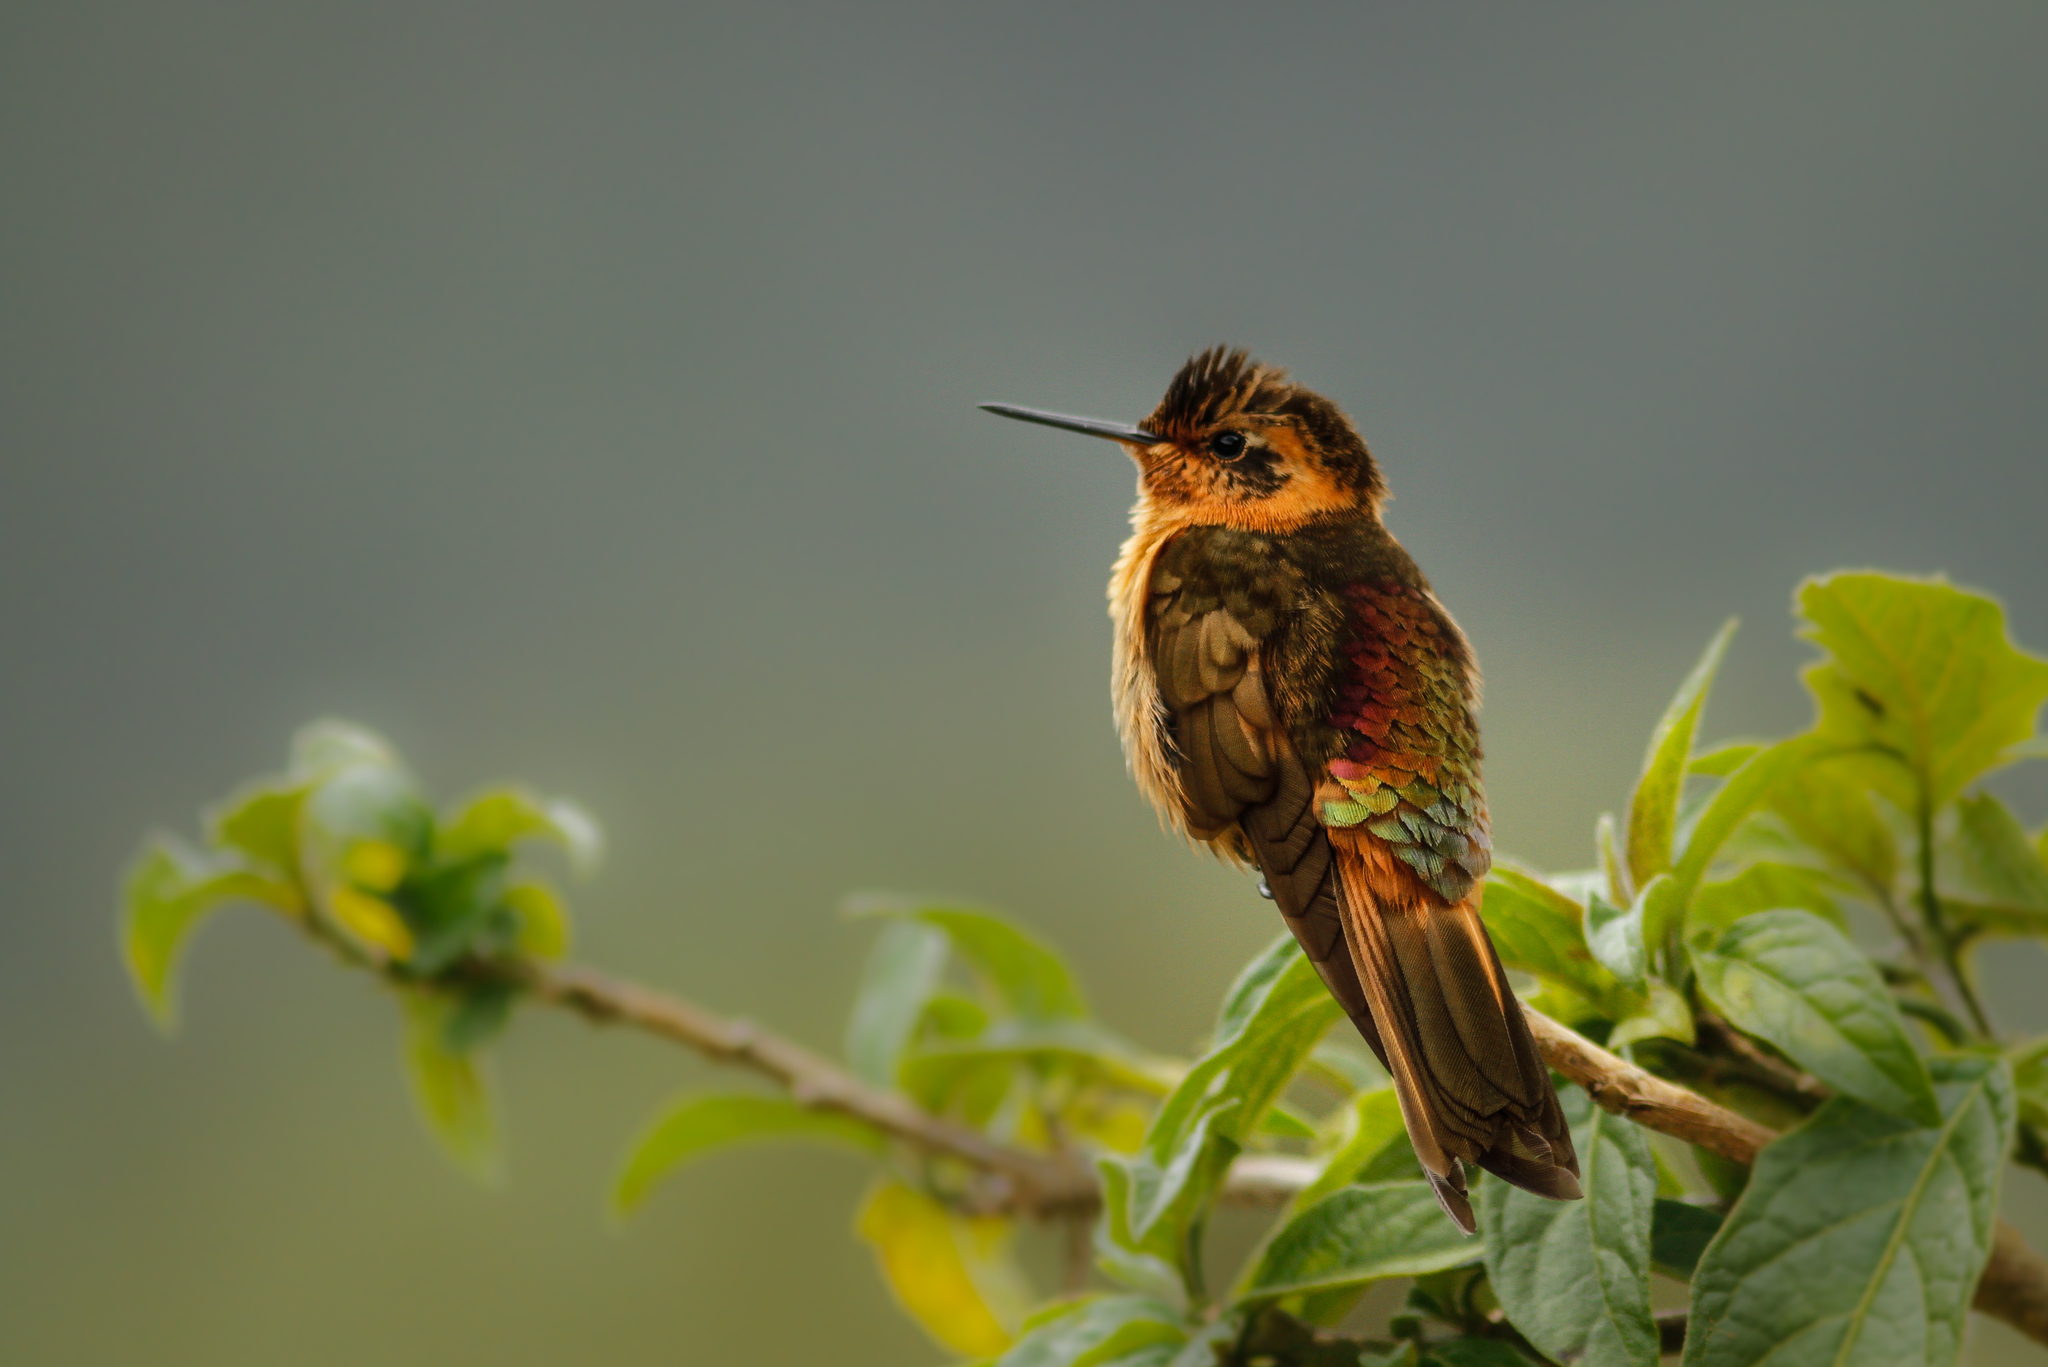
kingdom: Animalia
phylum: Chordata
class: Aves
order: Apodiformes
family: Trochilidae
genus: Aglaeactis
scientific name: Aglaeactis cupripennis
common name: Shining sunbeam
